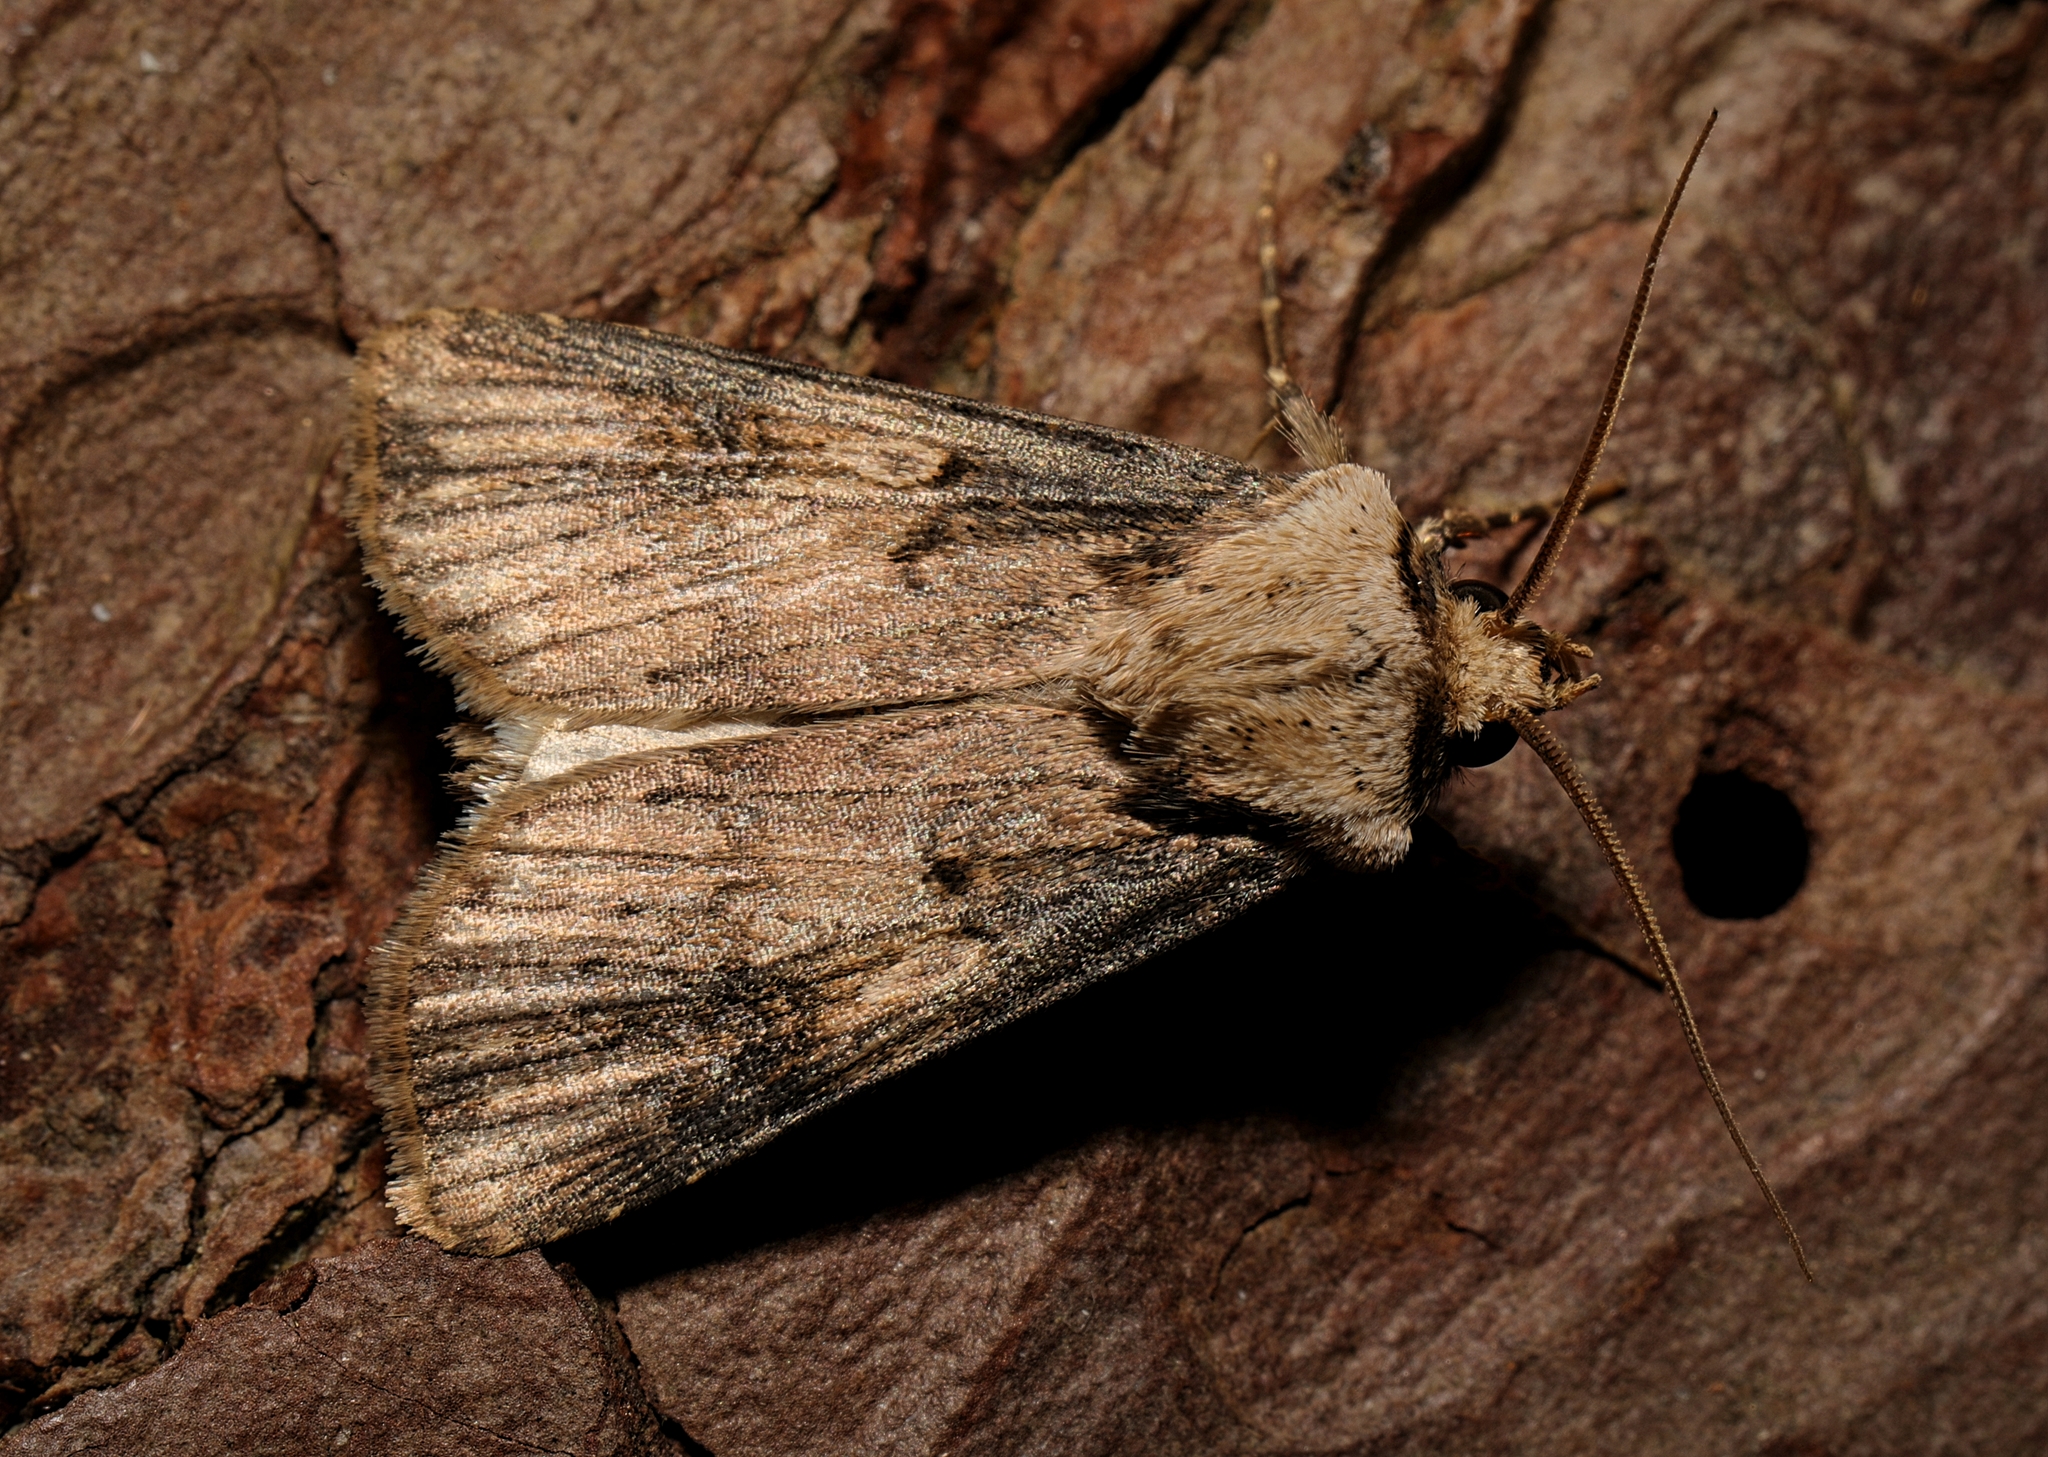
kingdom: Animalia
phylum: Arthropoda
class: Insecta
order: Lepidoptera
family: Noctuidae
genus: Agrotis
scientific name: Agrotis puta
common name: Shuttle-shaped dart
